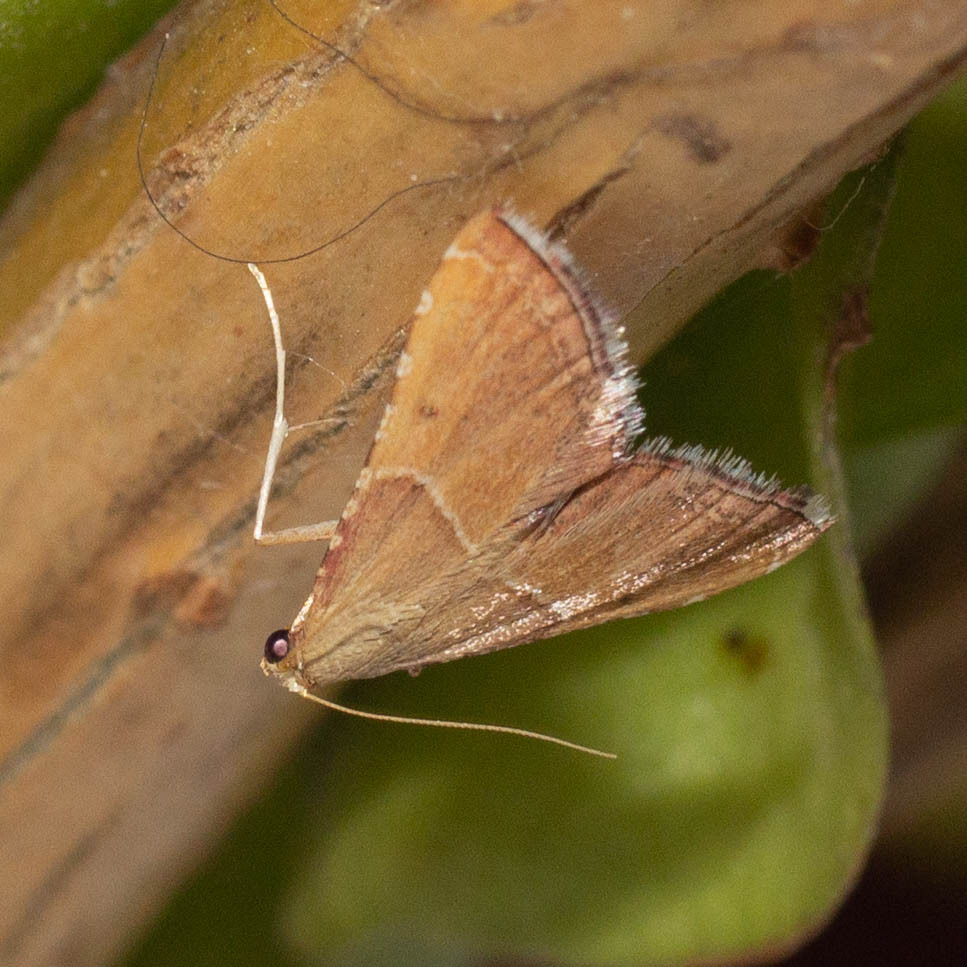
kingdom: Animalia
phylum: Arthropoda
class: Insecta
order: Lepidoptera
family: Pyralidae
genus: Endotricha
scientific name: Endotricha flammealis
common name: Rosy tabby
